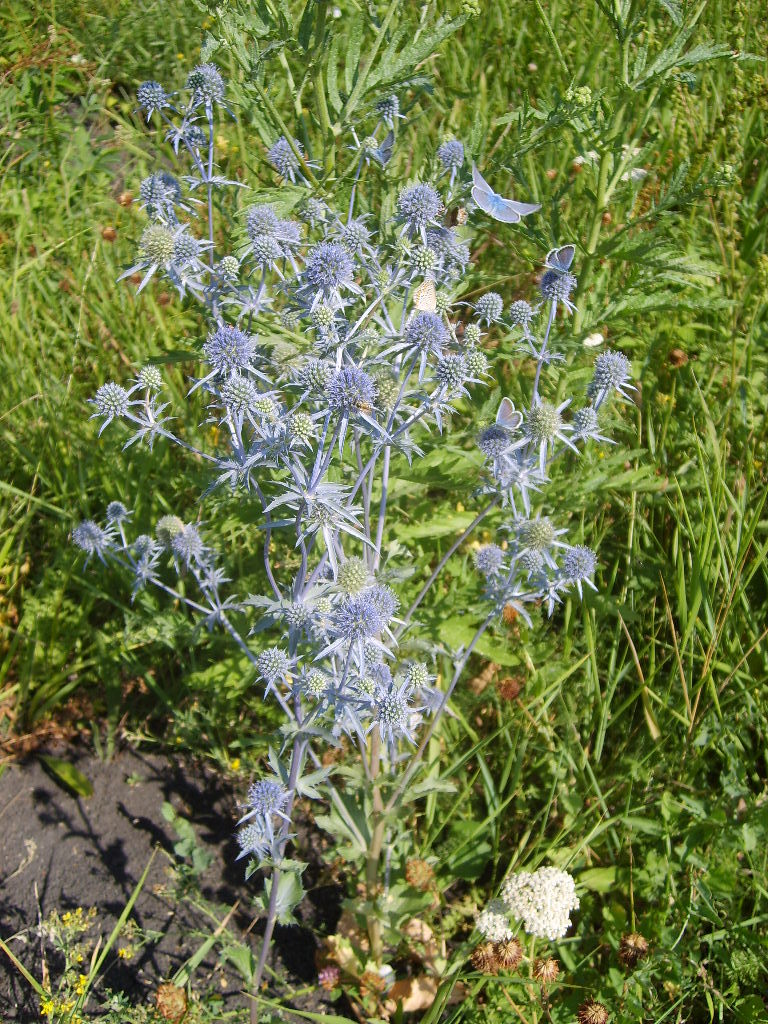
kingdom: Plantae
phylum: Tracheophyta
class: Magnoliopsida
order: Apiales
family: Apiaceae
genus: Eryngium
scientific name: Eryngium planum
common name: Blue eryngo
